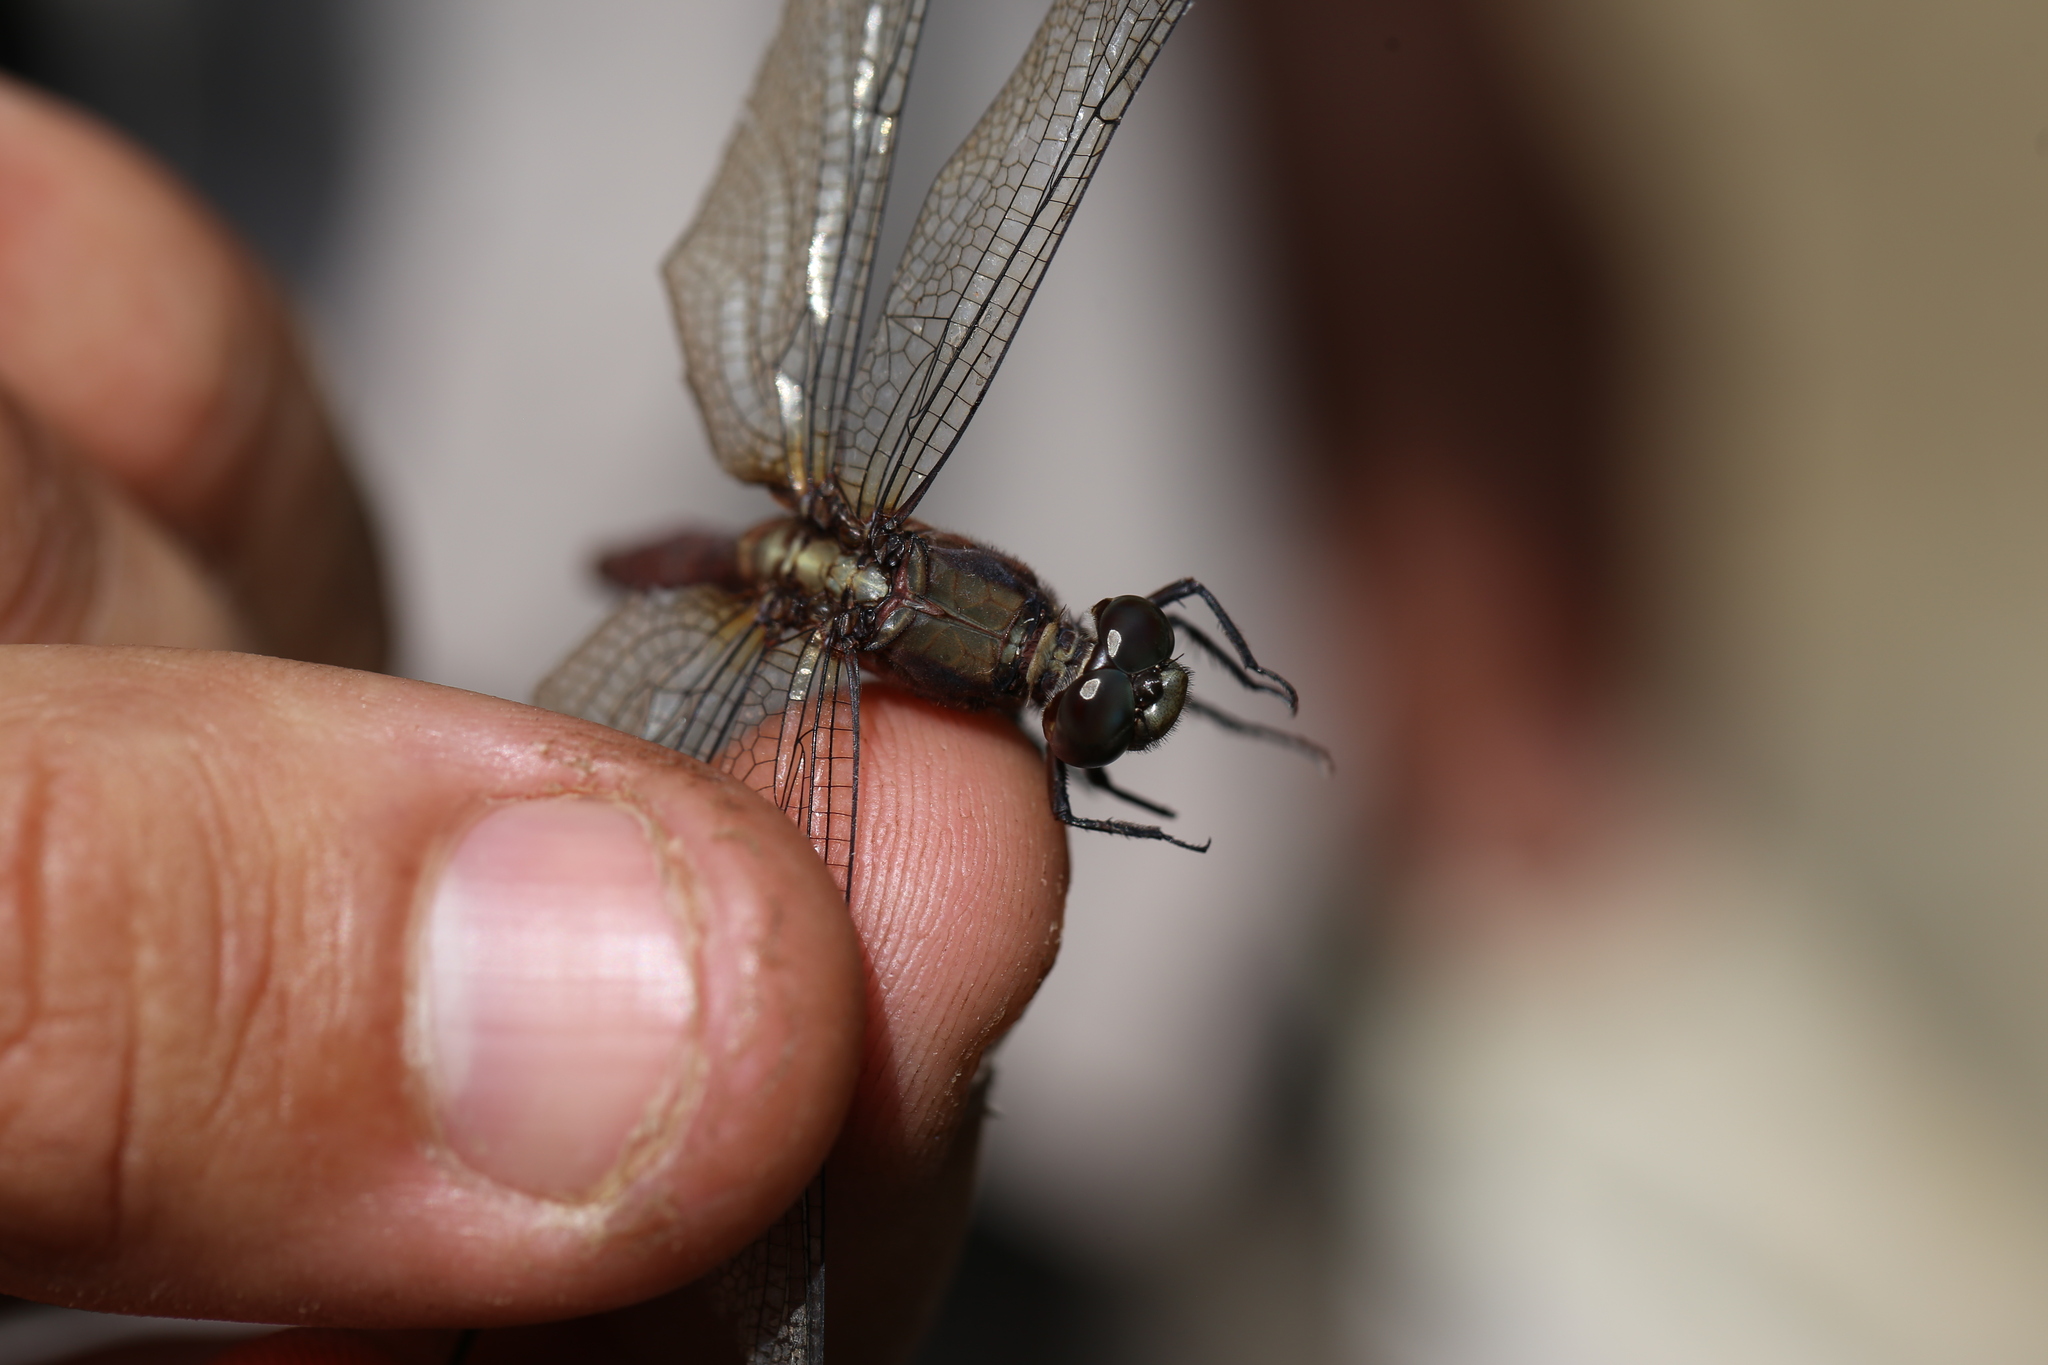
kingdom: Animalia
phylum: Arthropoda
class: Insecta
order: Odonata
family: Libellulidae
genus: Orthetrum
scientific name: Orthetrum villosovittatum
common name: Firery skimmer
